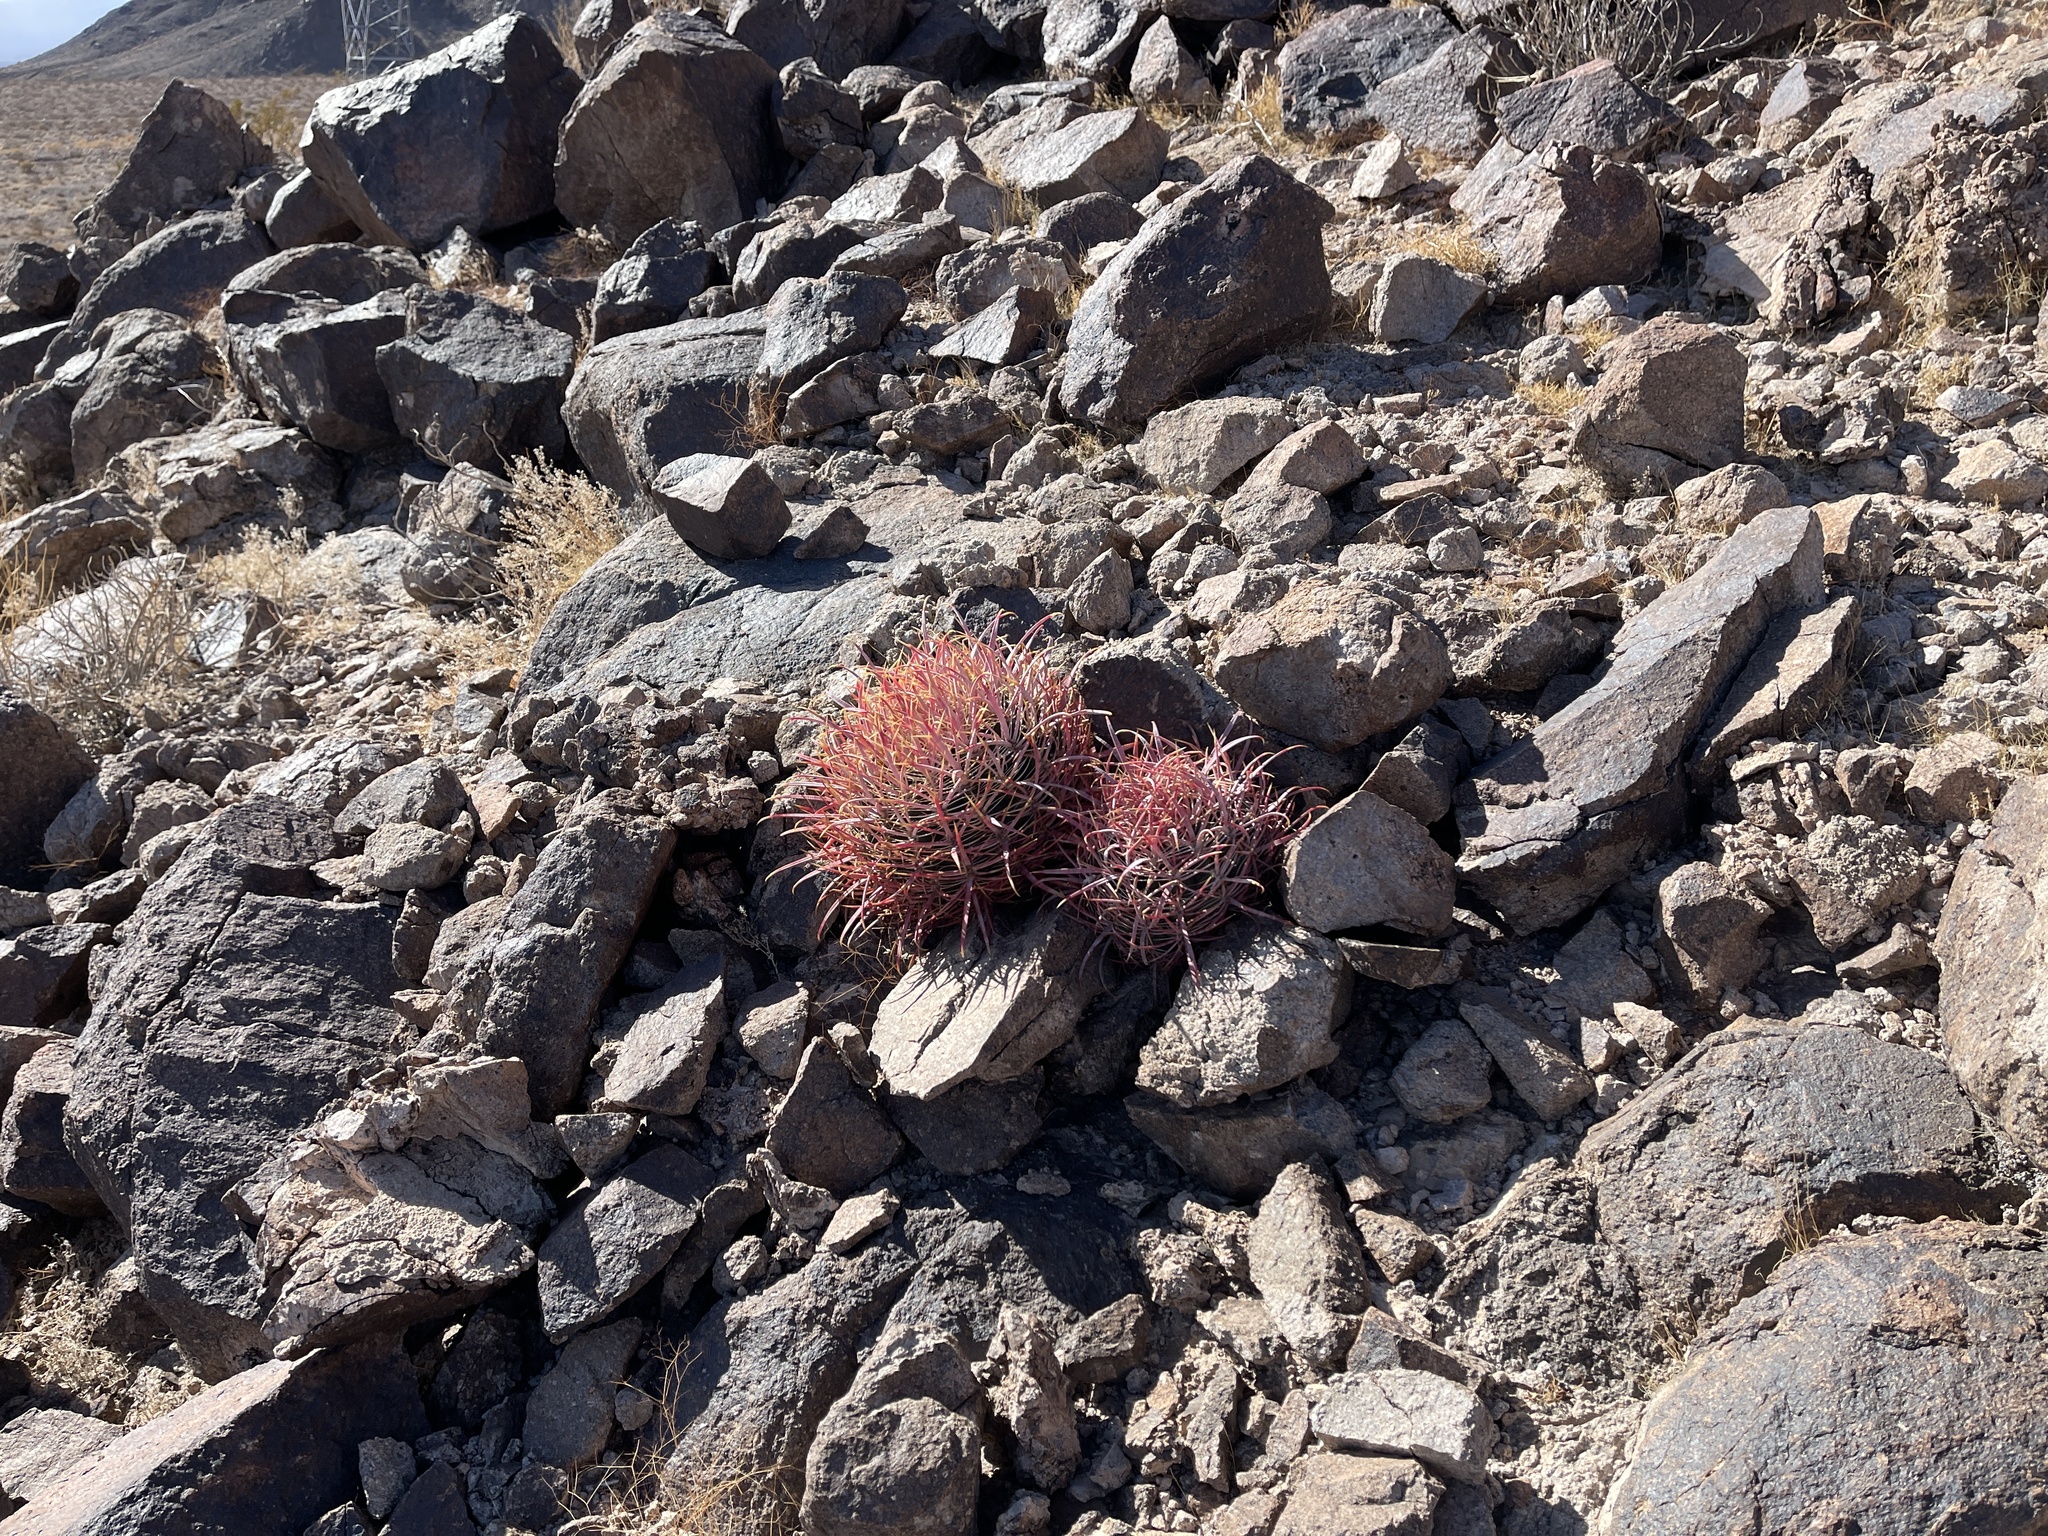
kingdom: Plantae
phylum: Tracheophyta
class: Magnoliopsida
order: Caryophyllales
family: Cactaceae
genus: Ferocactus
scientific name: Ferocactus cylindraceus
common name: California barrel cactus
